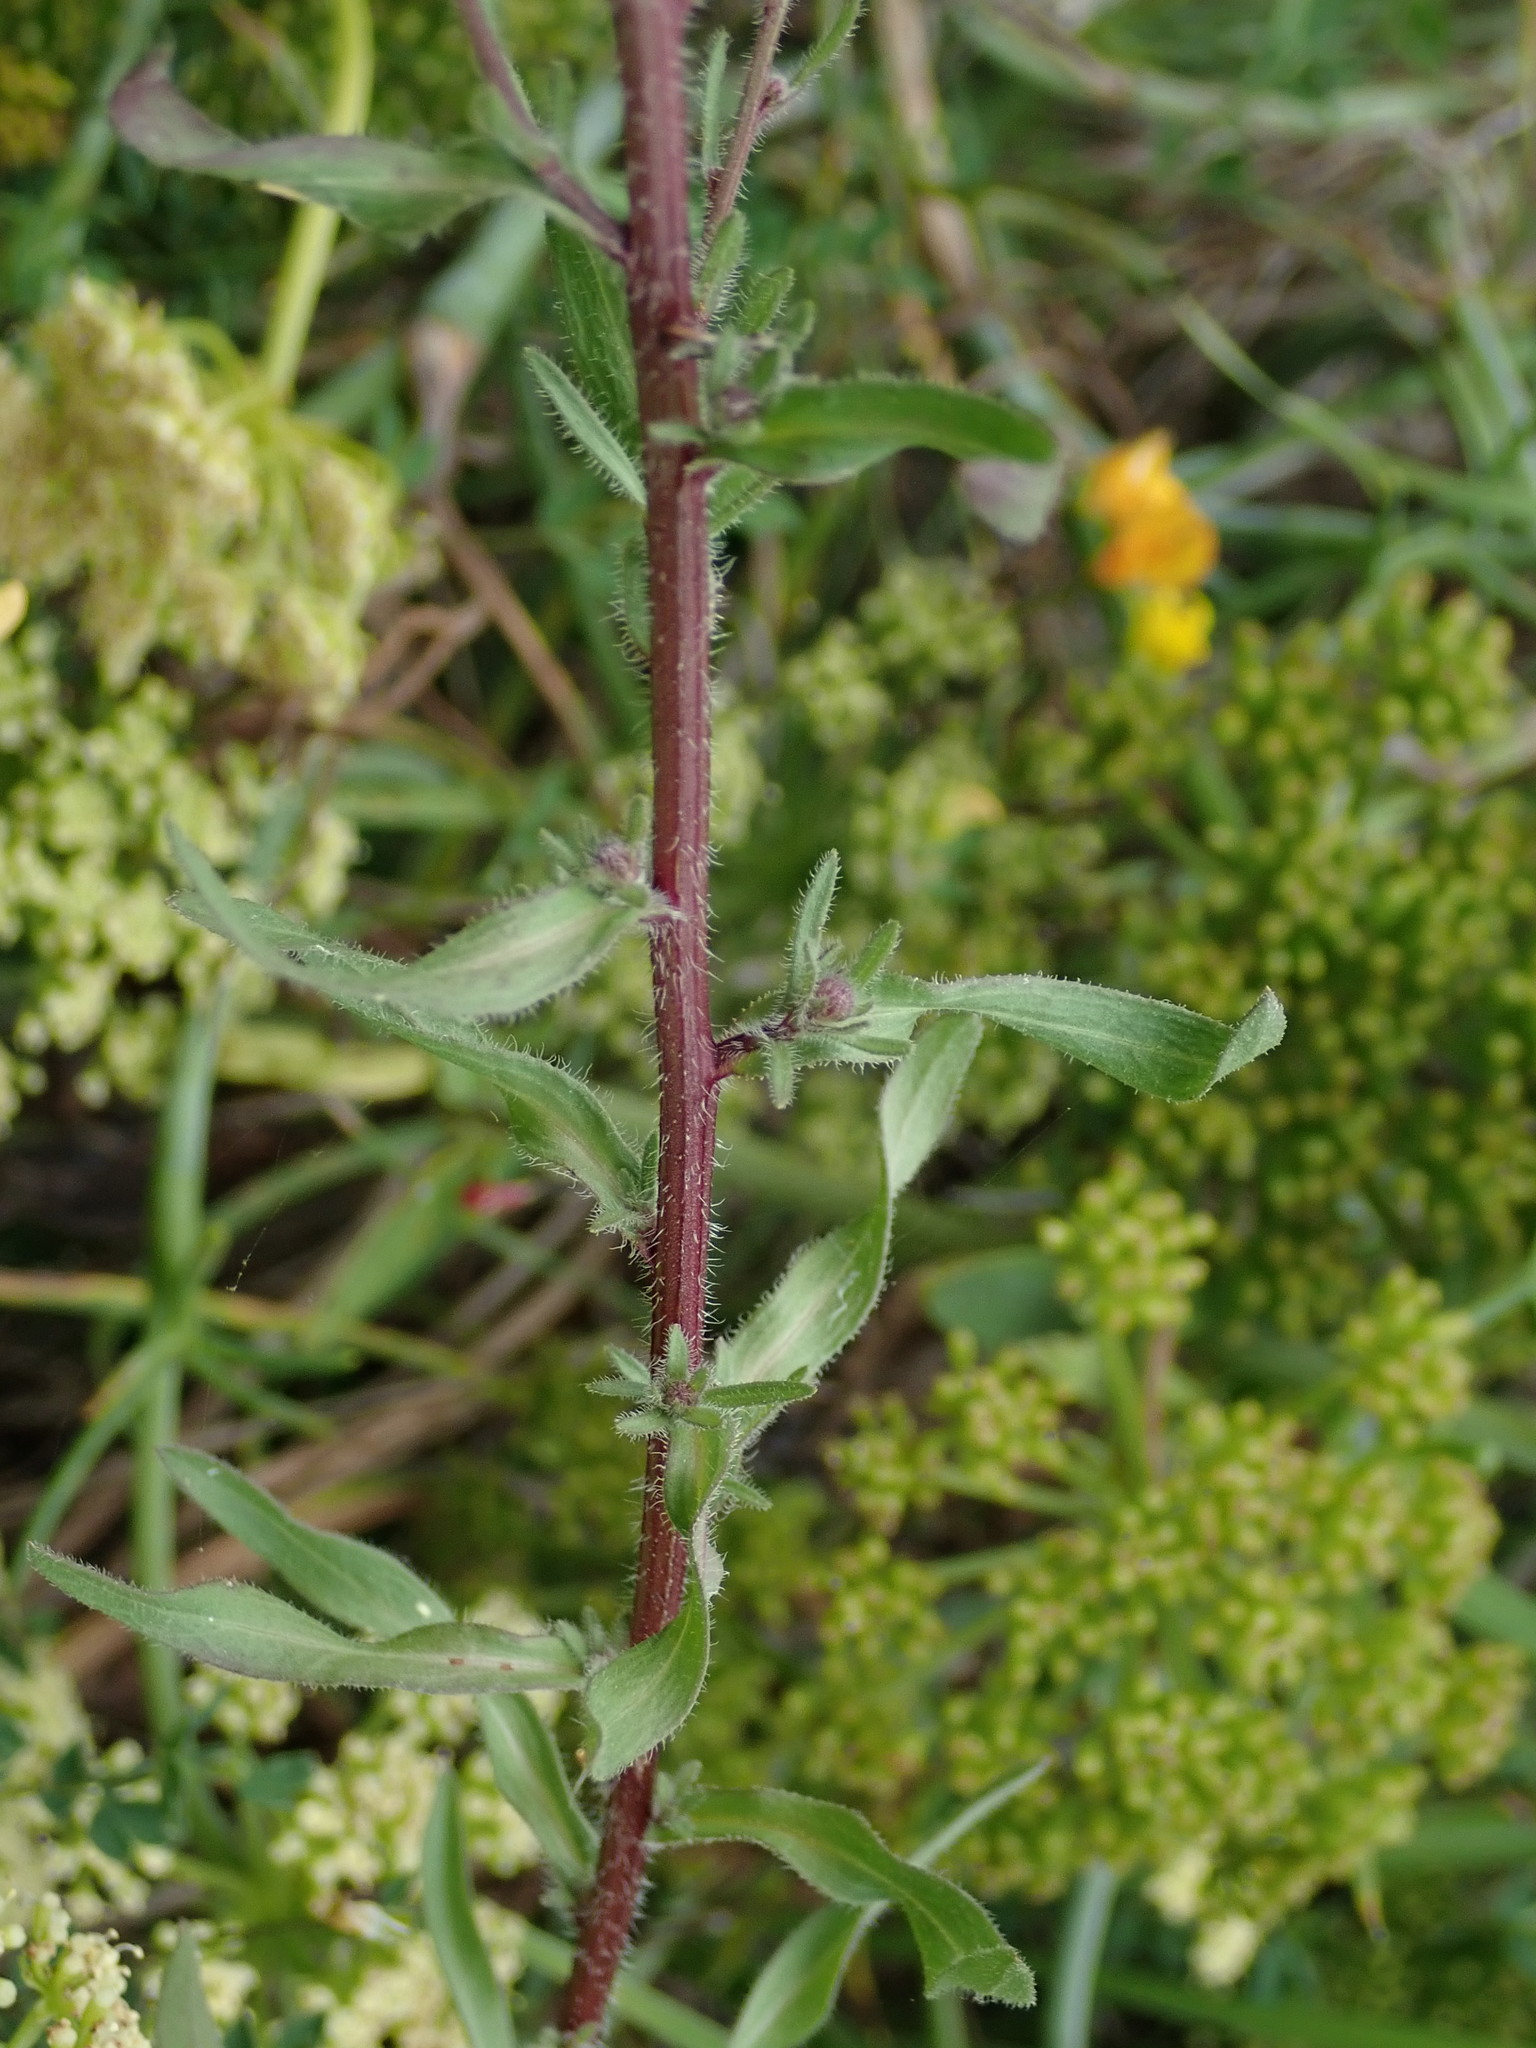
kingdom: Plantae
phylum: Tracheophyta
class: Magnoliopsida
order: Asterales
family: Asteraceae
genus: Erigeron
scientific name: Erigeron acris
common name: Blue fleabane
